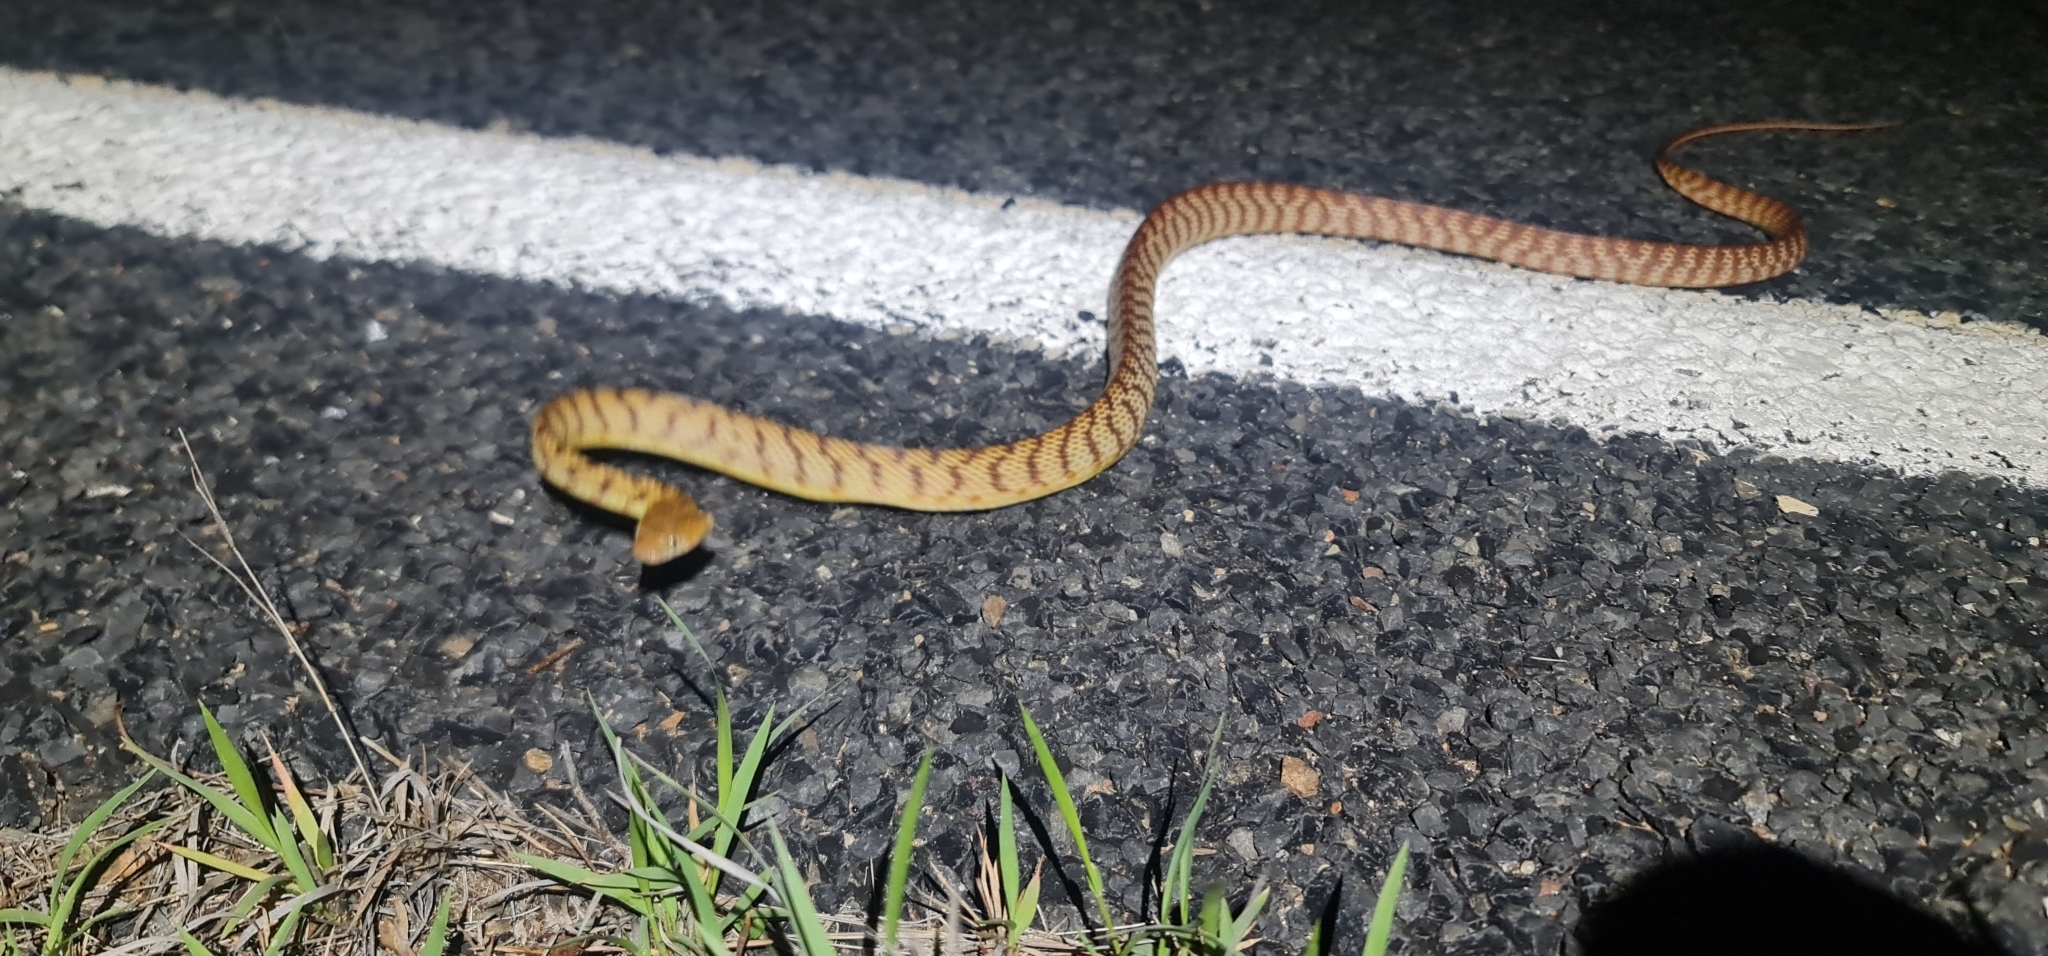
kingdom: Animalia
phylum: Chordata
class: Squamata
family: Colubridae
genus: Boiga
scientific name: Boiga irregularis
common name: Brown tree snake
